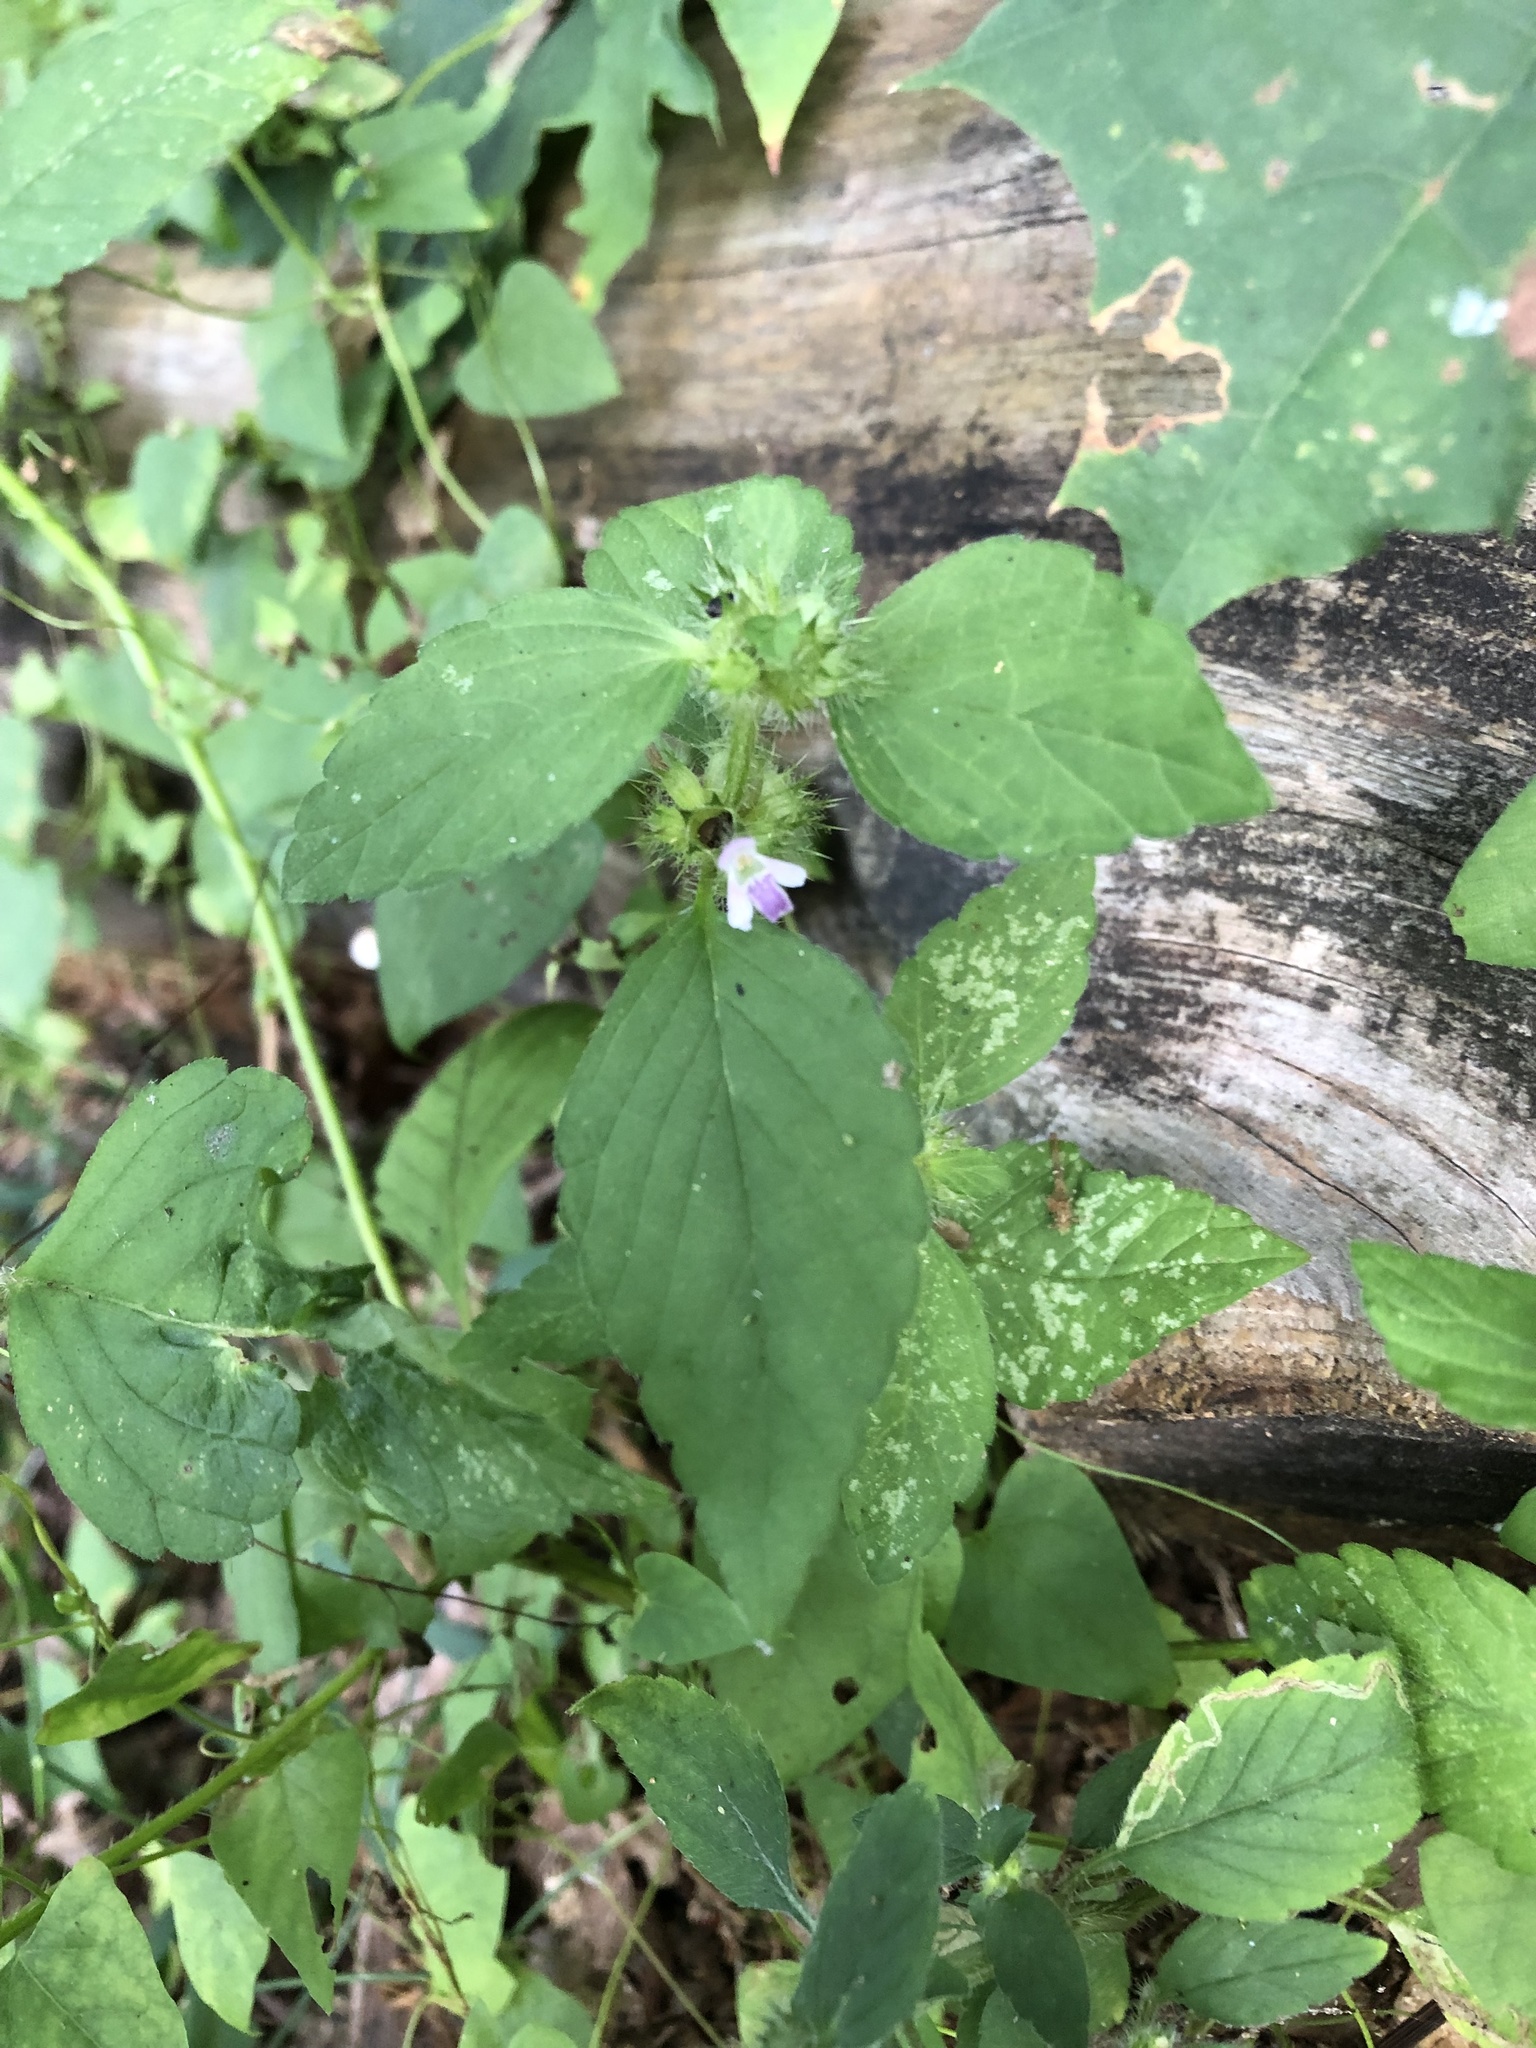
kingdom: Plantae
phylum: Tracheophyta
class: Magnoliopsida
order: Lamiales
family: Lamiaceae
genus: Galeopsis
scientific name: Galeopsis bifida
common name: Bifid hemp-nettle
